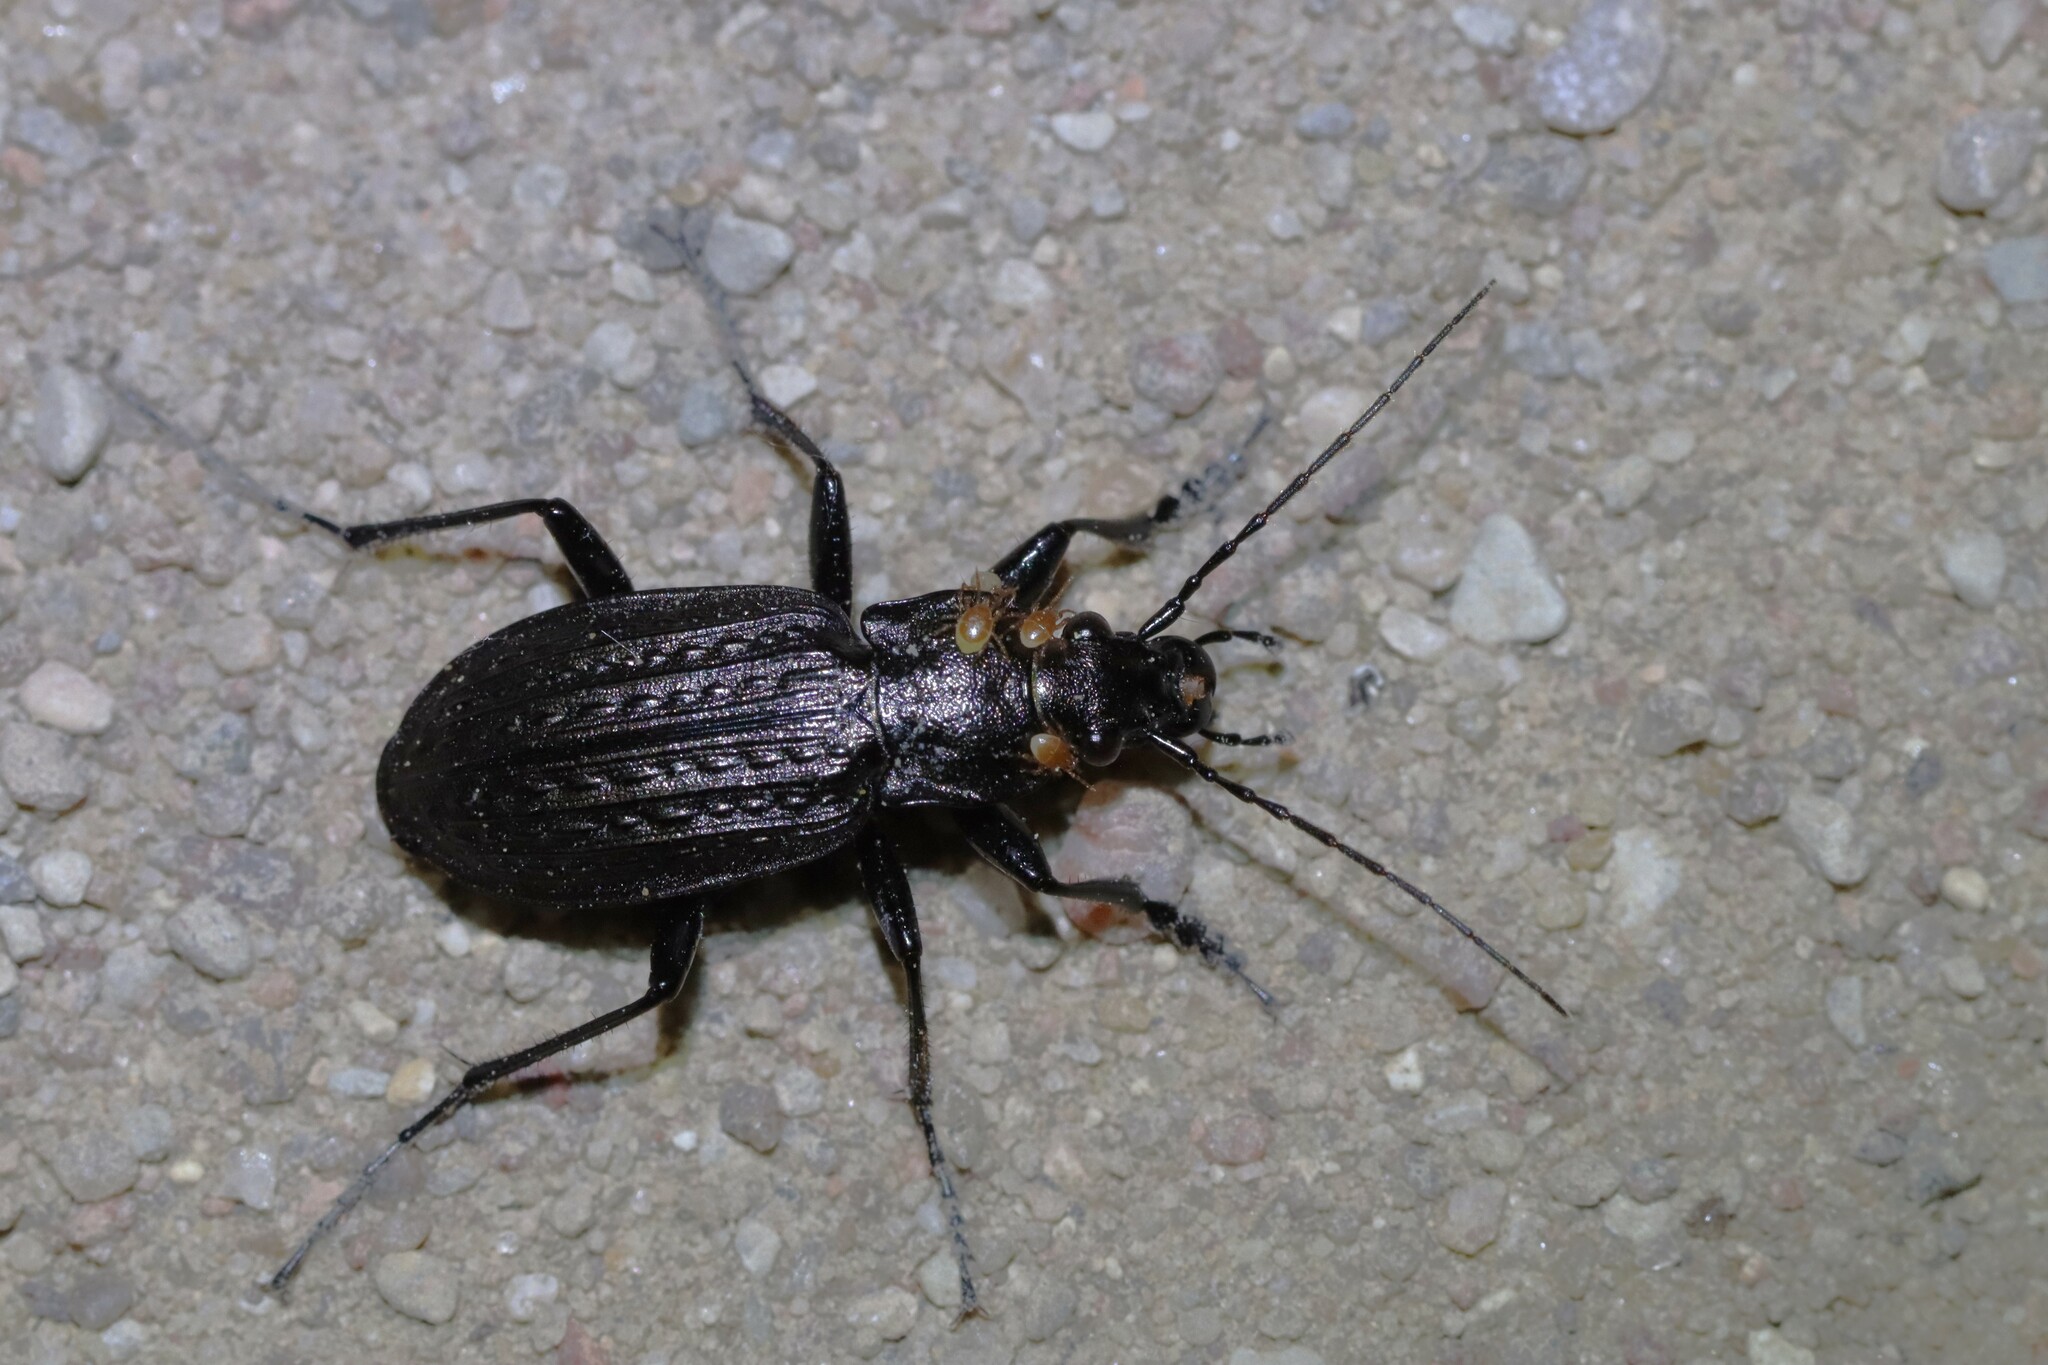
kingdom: Animalia
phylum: Arthropoda
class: Insecta
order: Coleoptera
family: Carabidae
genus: Carabus
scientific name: Carabus granulatus
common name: Granulate ground beetle
